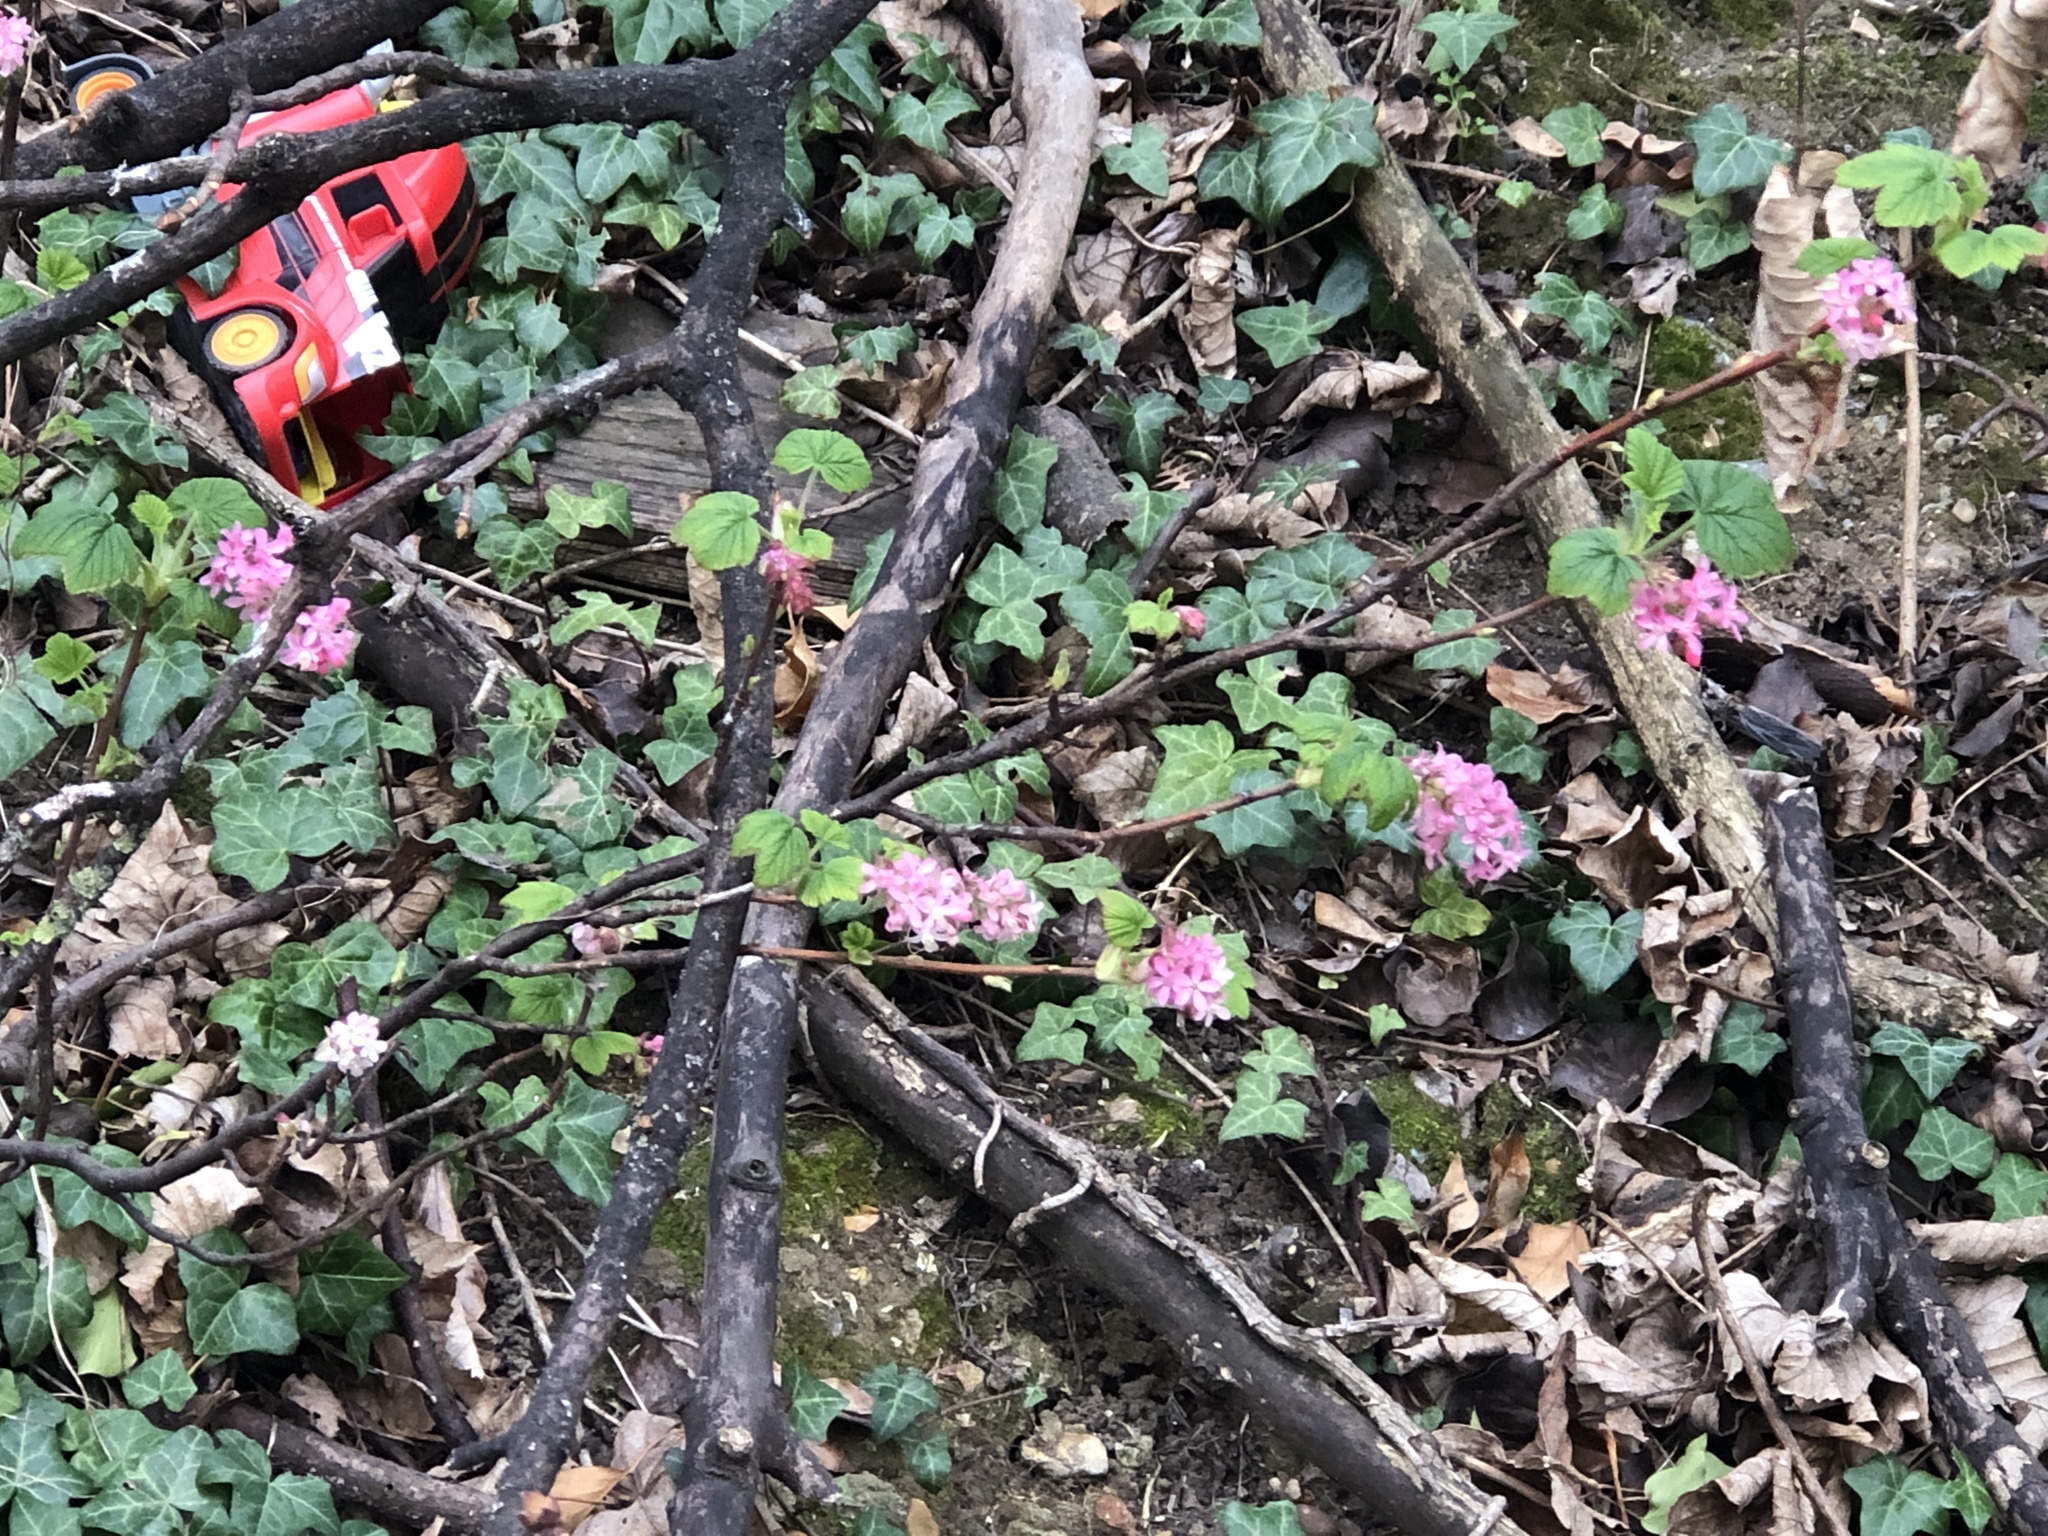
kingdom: Plantae
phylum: Tracheophyta
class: Magnoliopsida
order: Saxifragales
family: Grossulariaceae
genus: Ribes
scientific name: Ribes sanguineum
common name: Flowering currant
